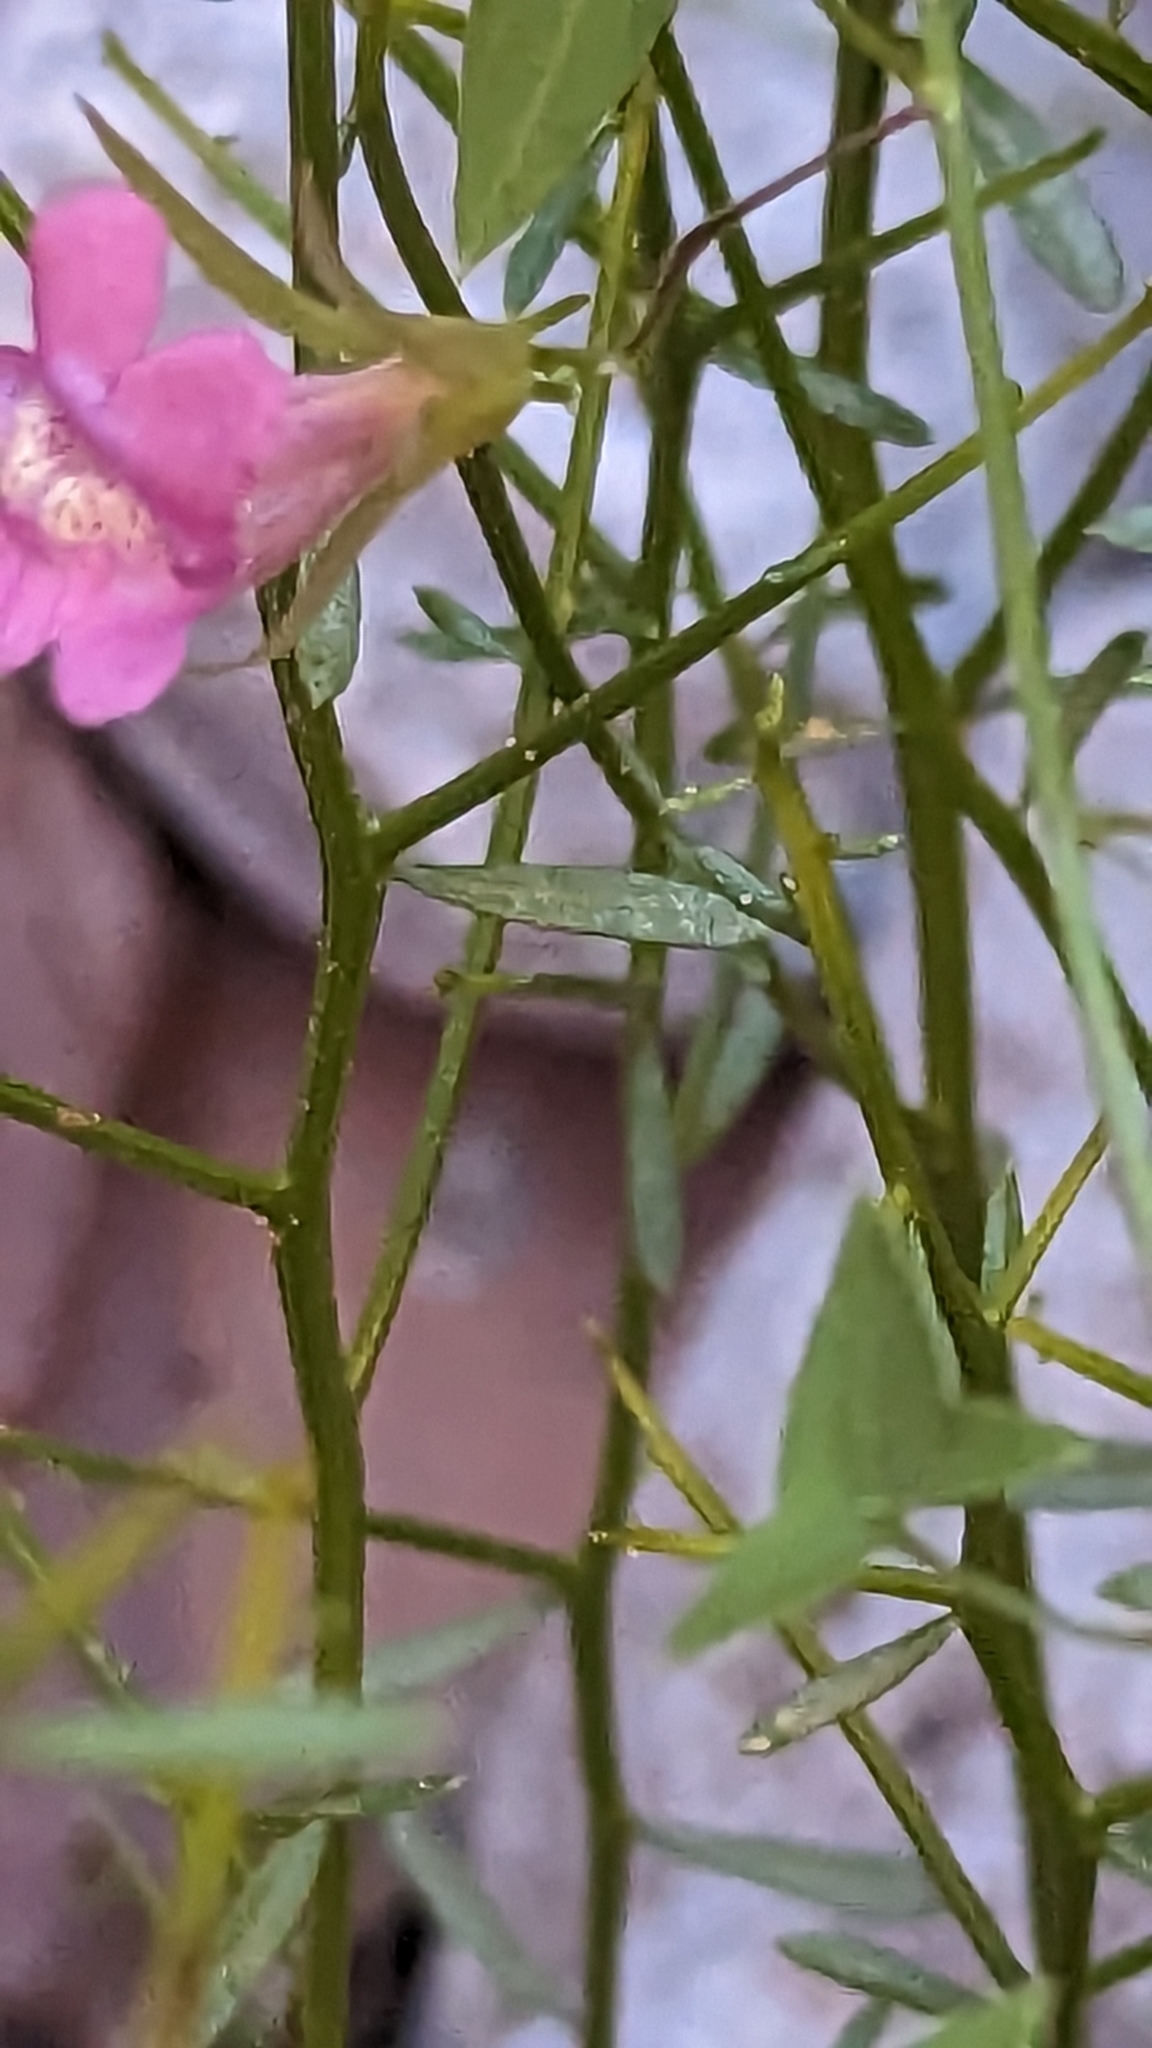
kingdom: Plantae
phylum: Tracheophyta
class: Magnoliopsida
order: Lamiales
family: Plantaginaceae
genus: Maurandella
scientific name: Maurandella antirrhiniflora
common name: Violet twining-snapdragon
